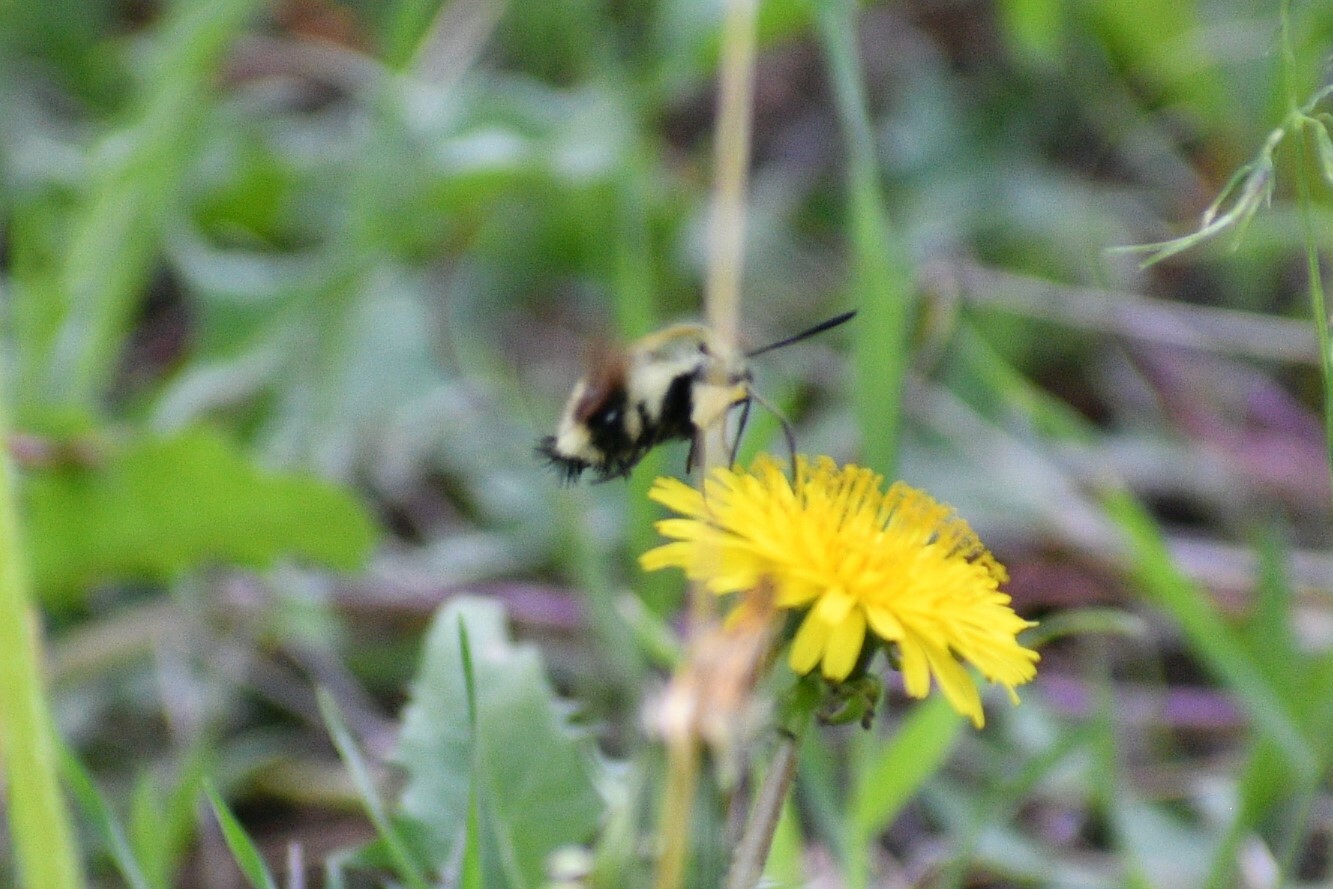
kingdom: Animalia
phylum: Arthropoda
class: Insecta
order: Lepidoptera
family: Sphingidae
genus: Hemaris
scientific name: Hemaris thetis
